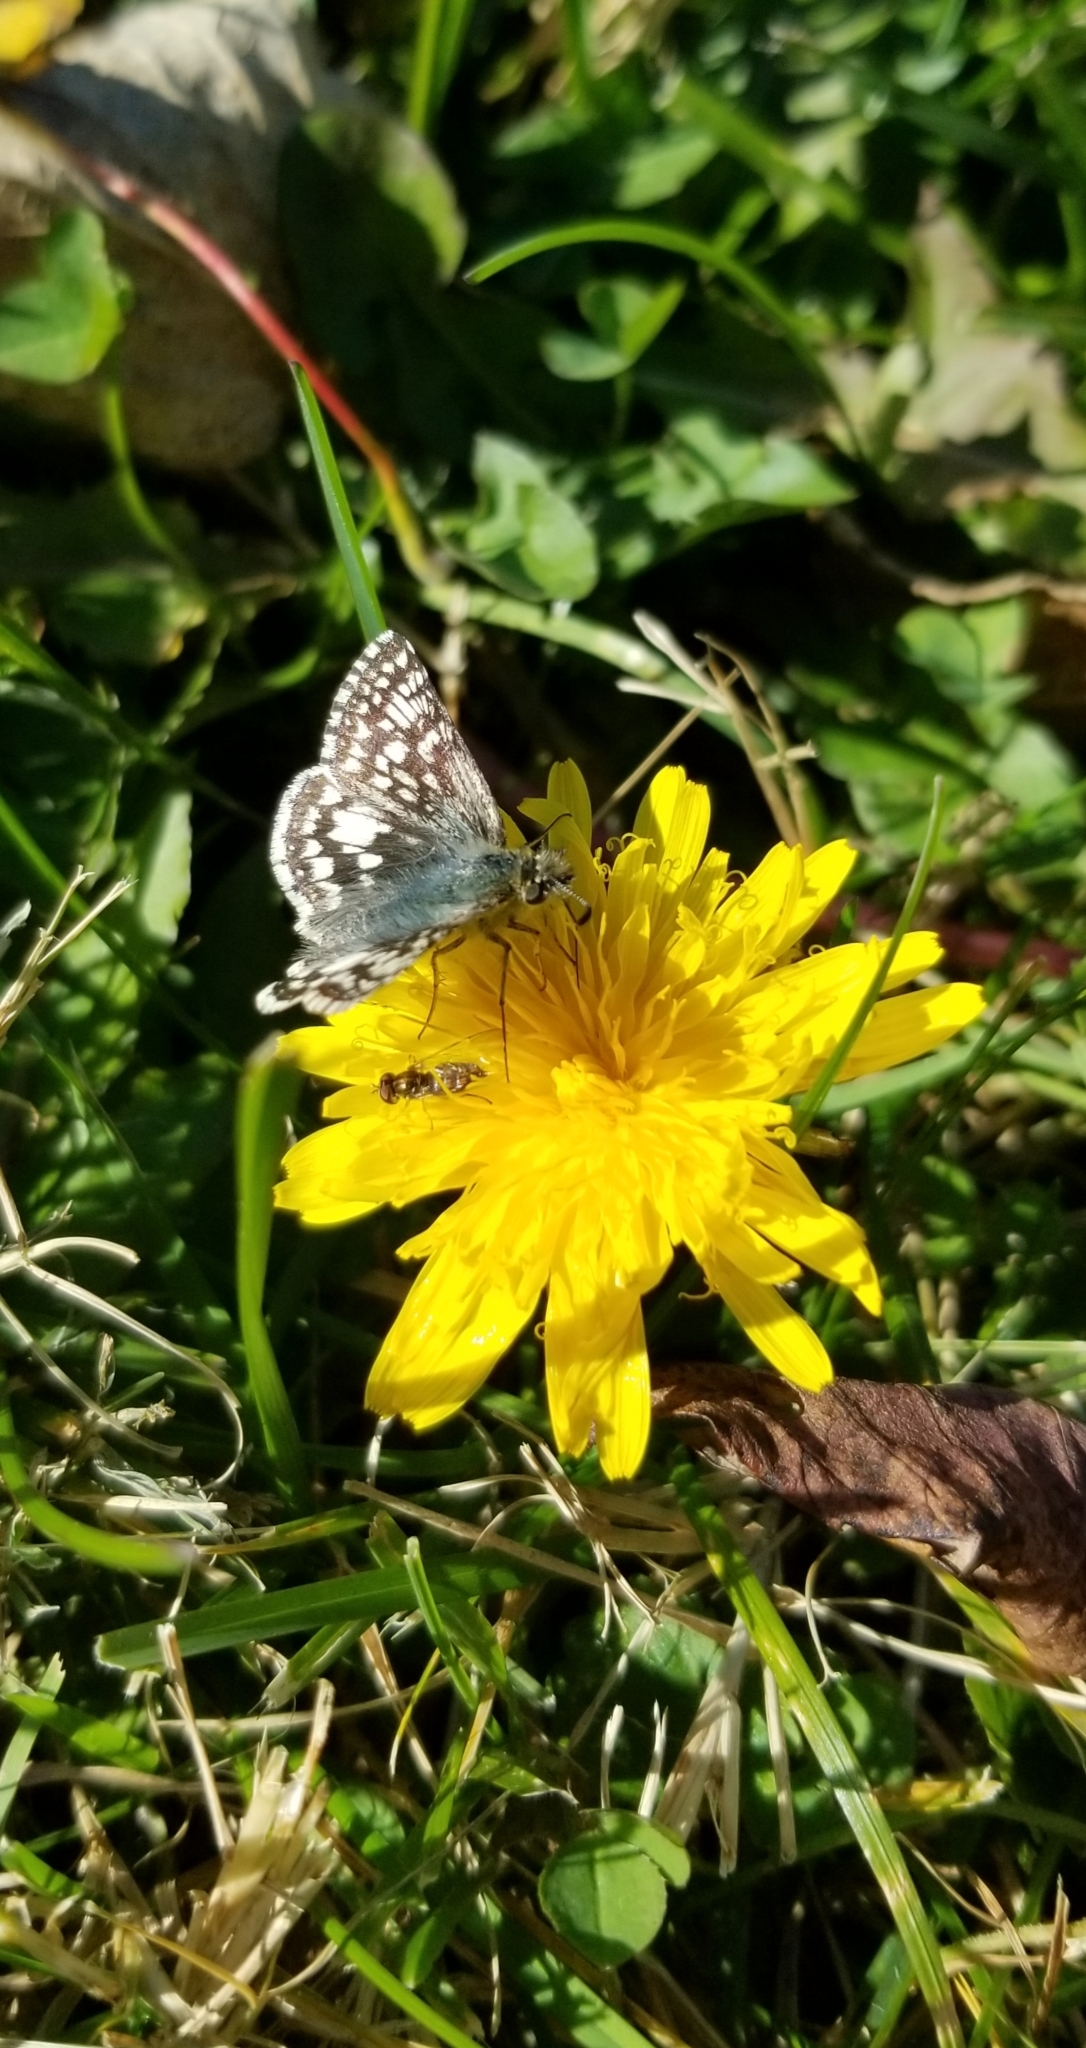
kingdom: Animalia
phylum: Arthropoda
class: Insecta
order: Lepidoptera
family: Hesperiidae
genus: Burnsius
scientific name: Burnsius communis
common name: Common checkered-skipper
